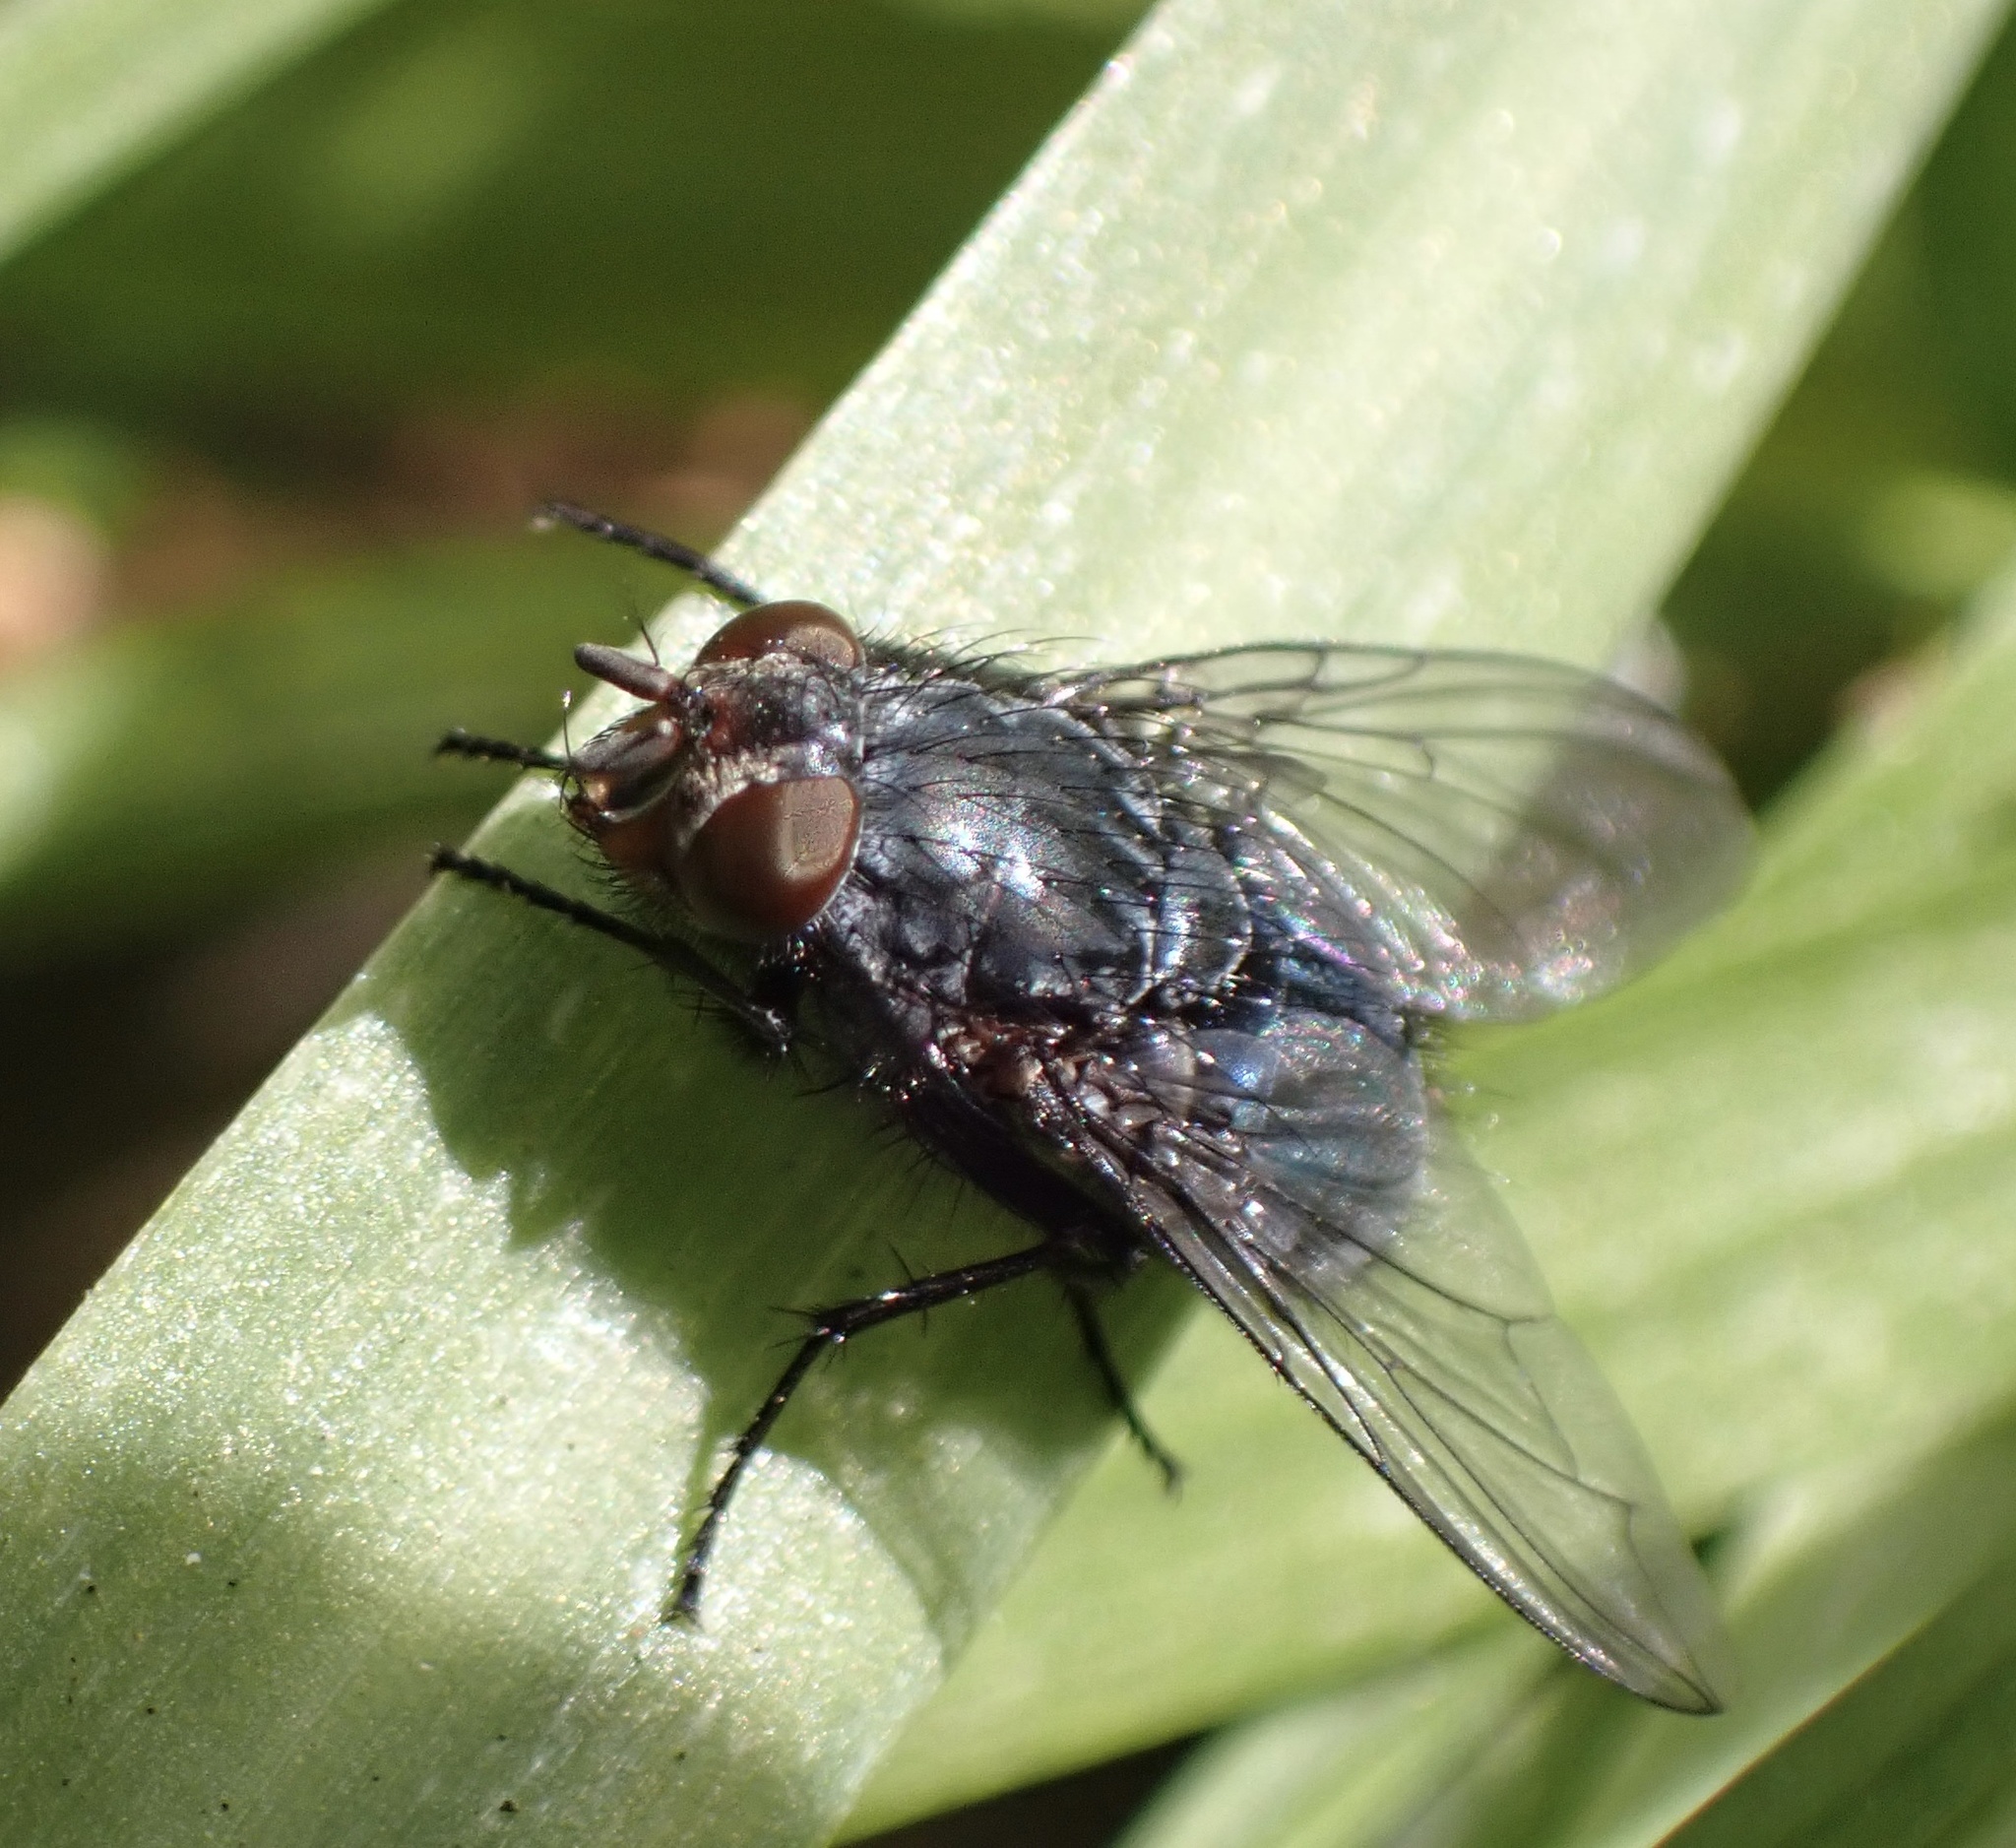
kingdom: Animalia
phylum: Arthropoda
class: Insecta
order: Diptera
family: Calliphoridae
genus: Calliphora
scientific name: Calliphora vicina
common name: Common blow flie
